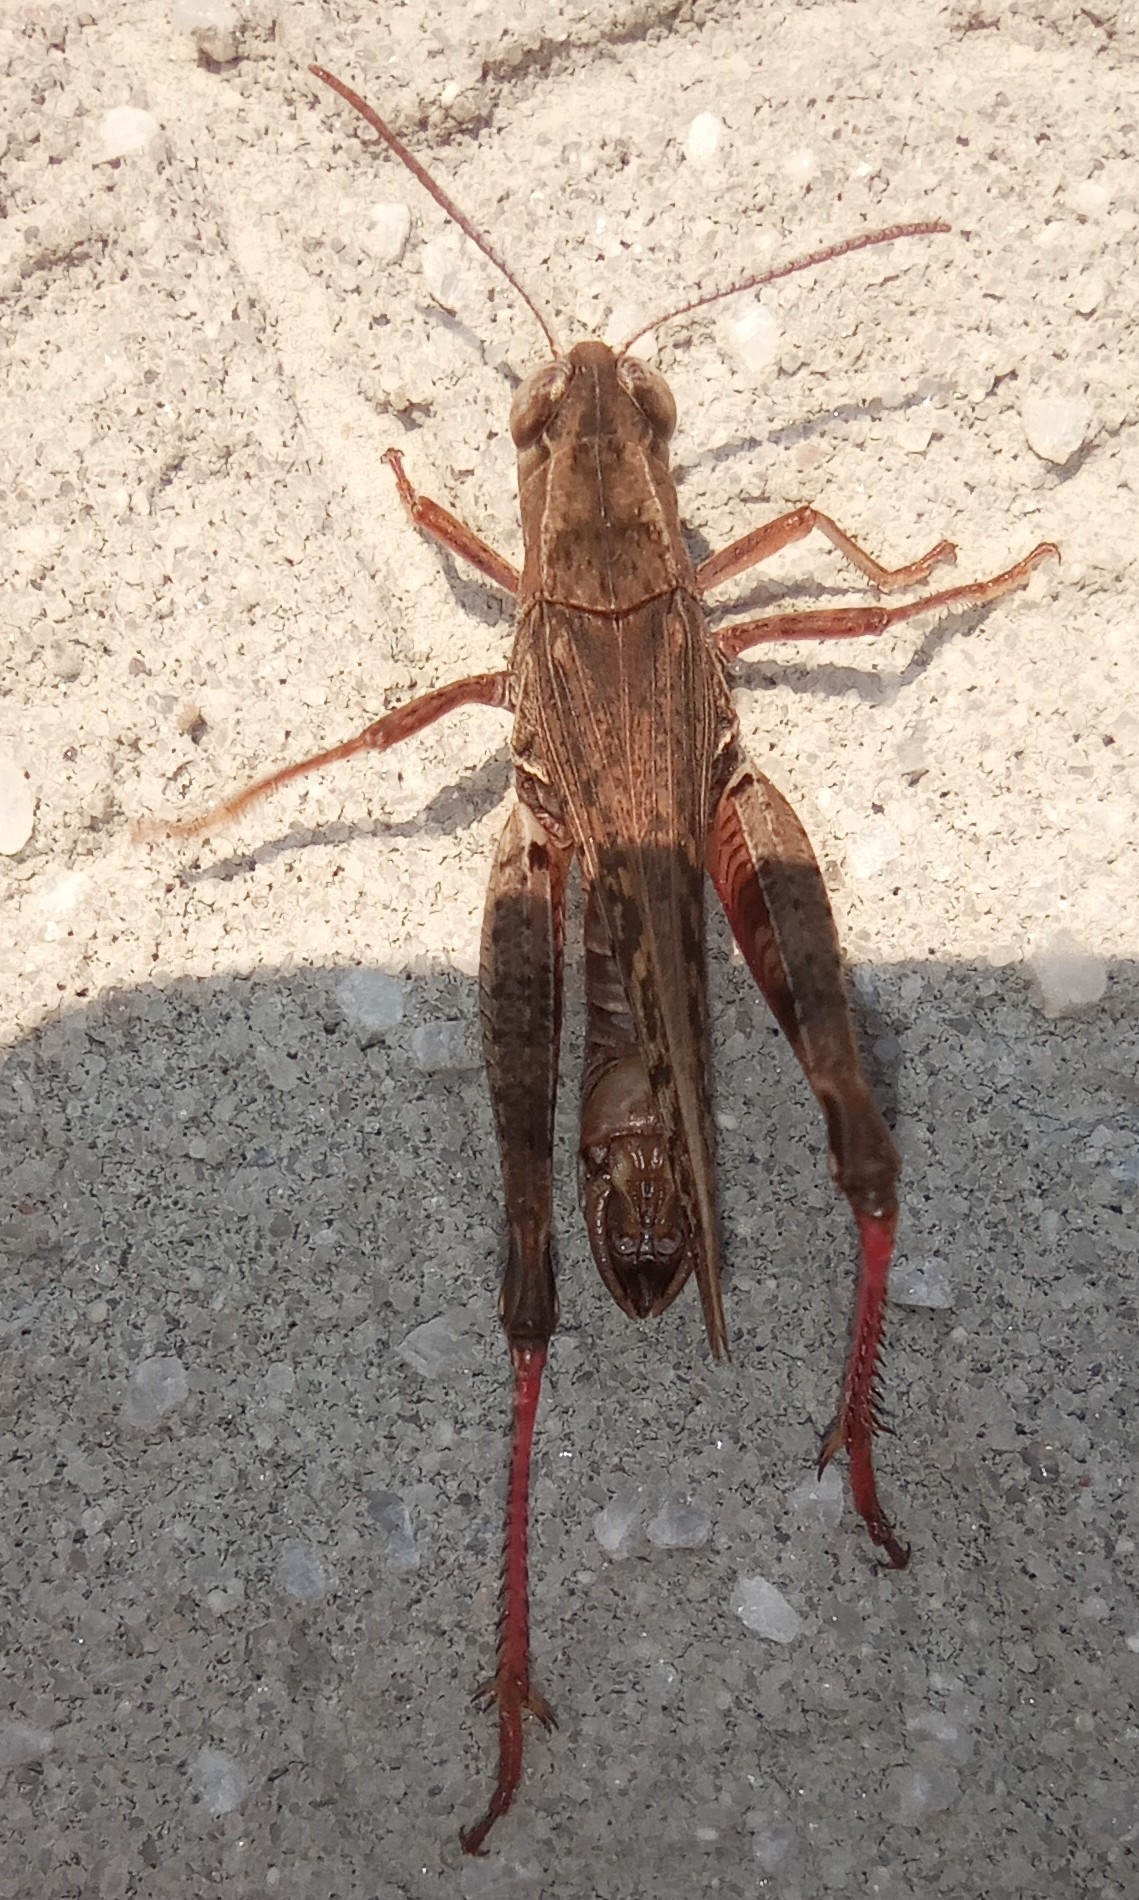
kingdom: Animalia
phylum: Arthropoda
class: Insecta
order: Orthoptera
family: Acrididae
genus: Calliptamus
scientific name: Calliptamus italicus
